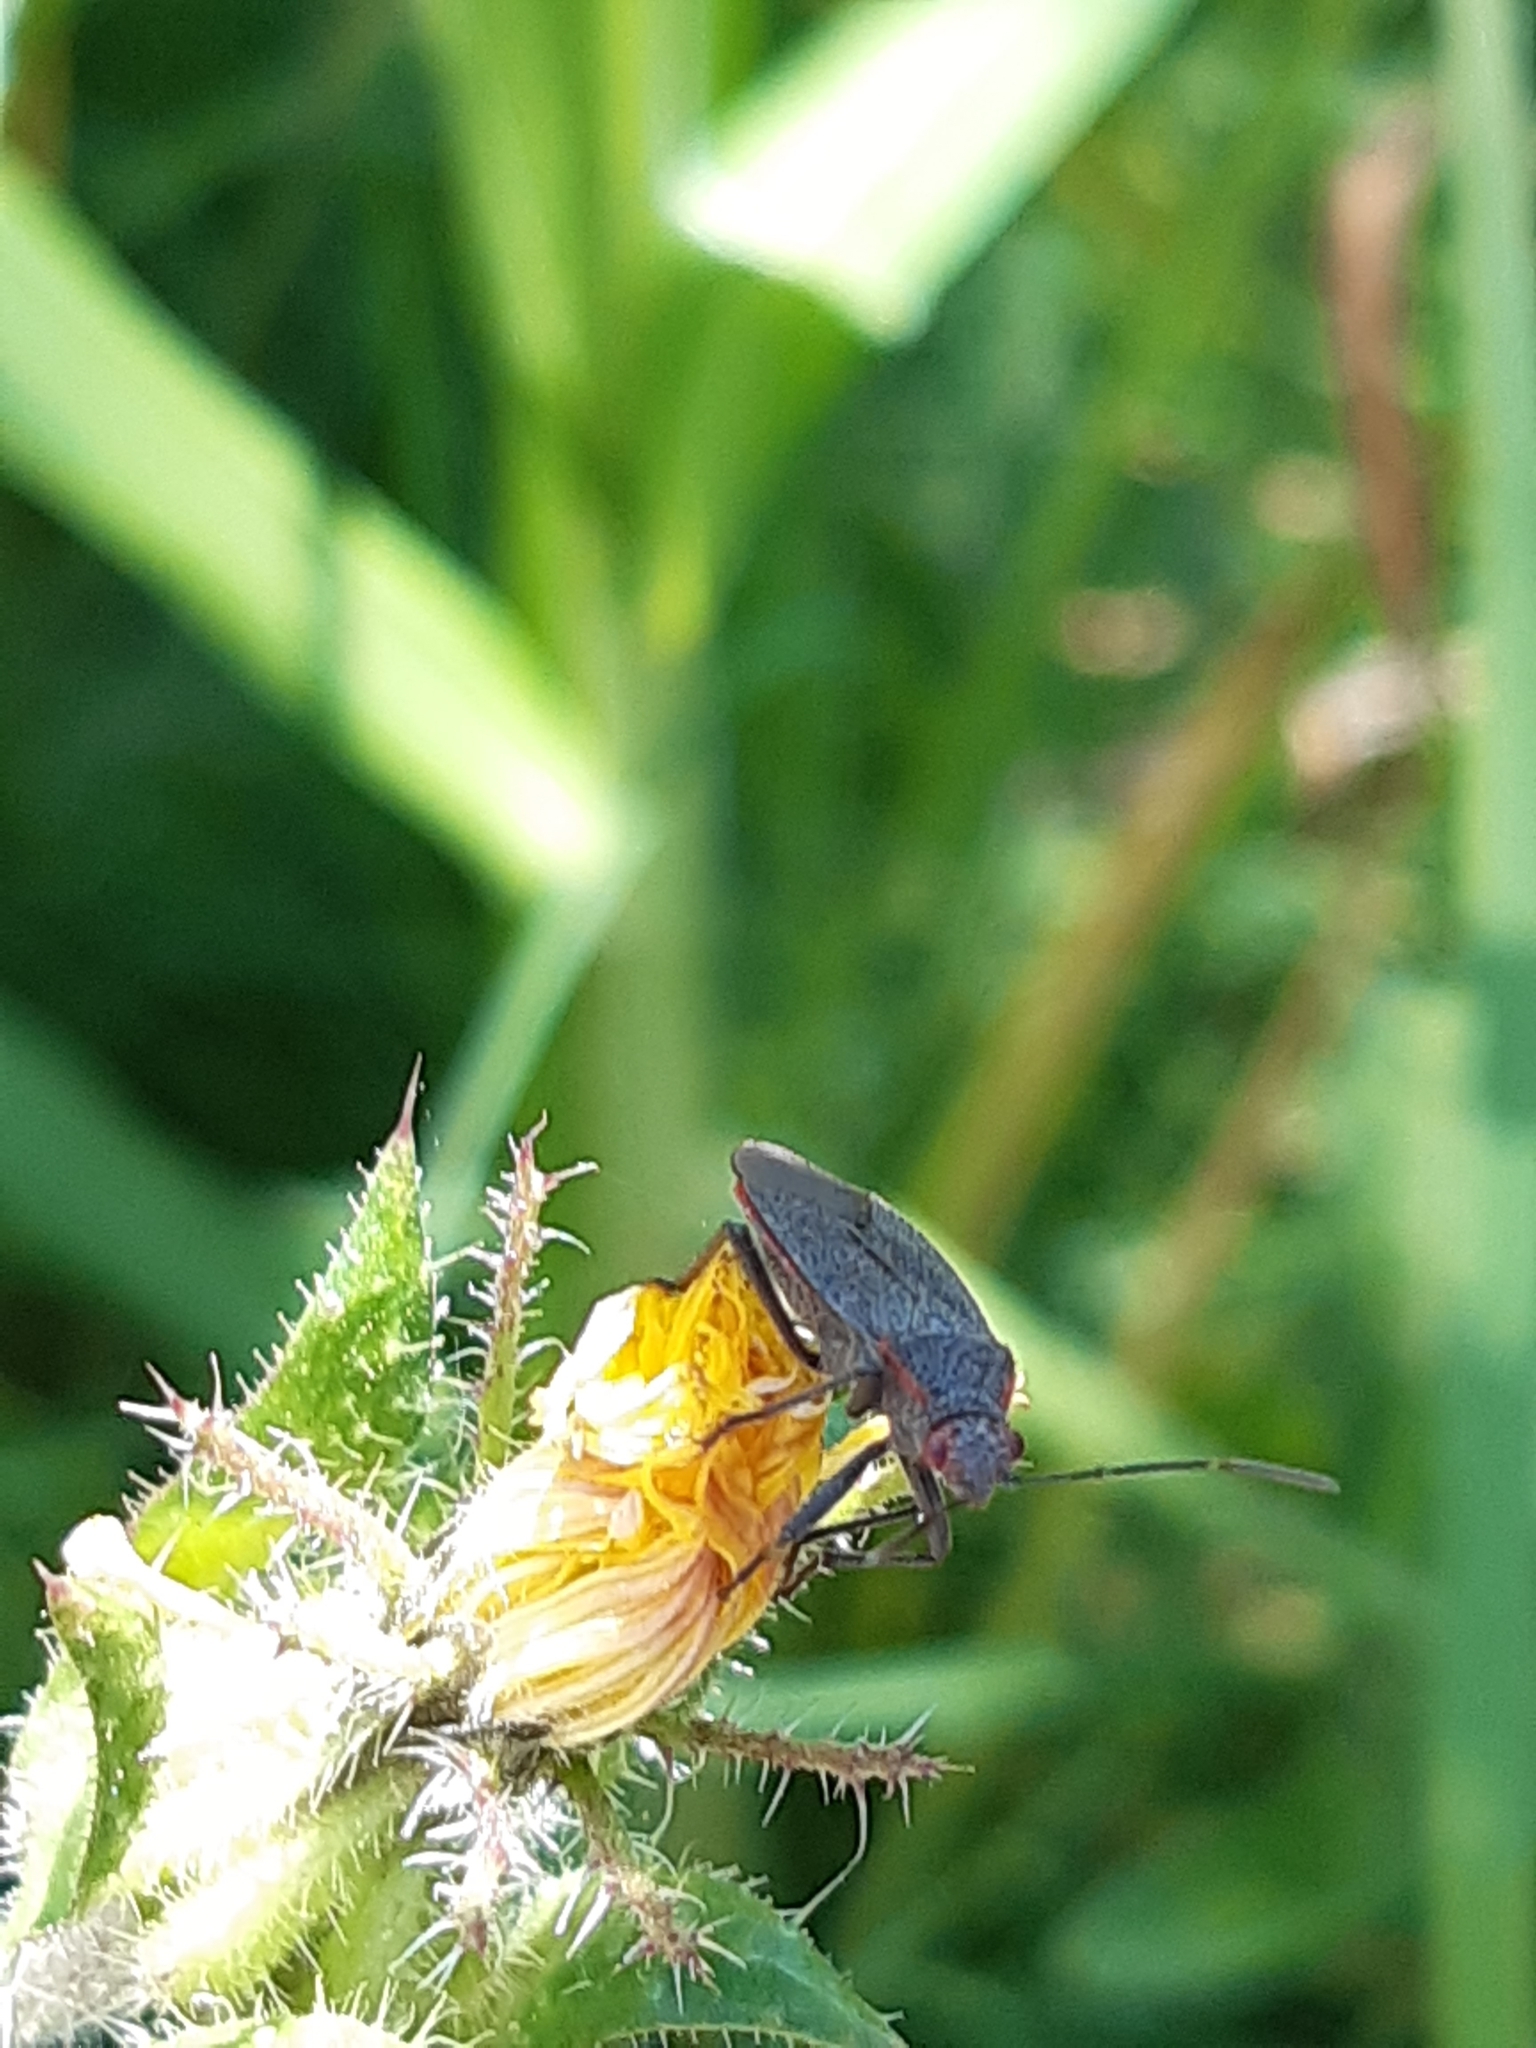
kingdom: Animalia
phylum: Arthropoda
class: Insecta
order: Hemiptera
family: Rhopalidae
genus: Jadera
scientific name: Jadera parapectoralis
